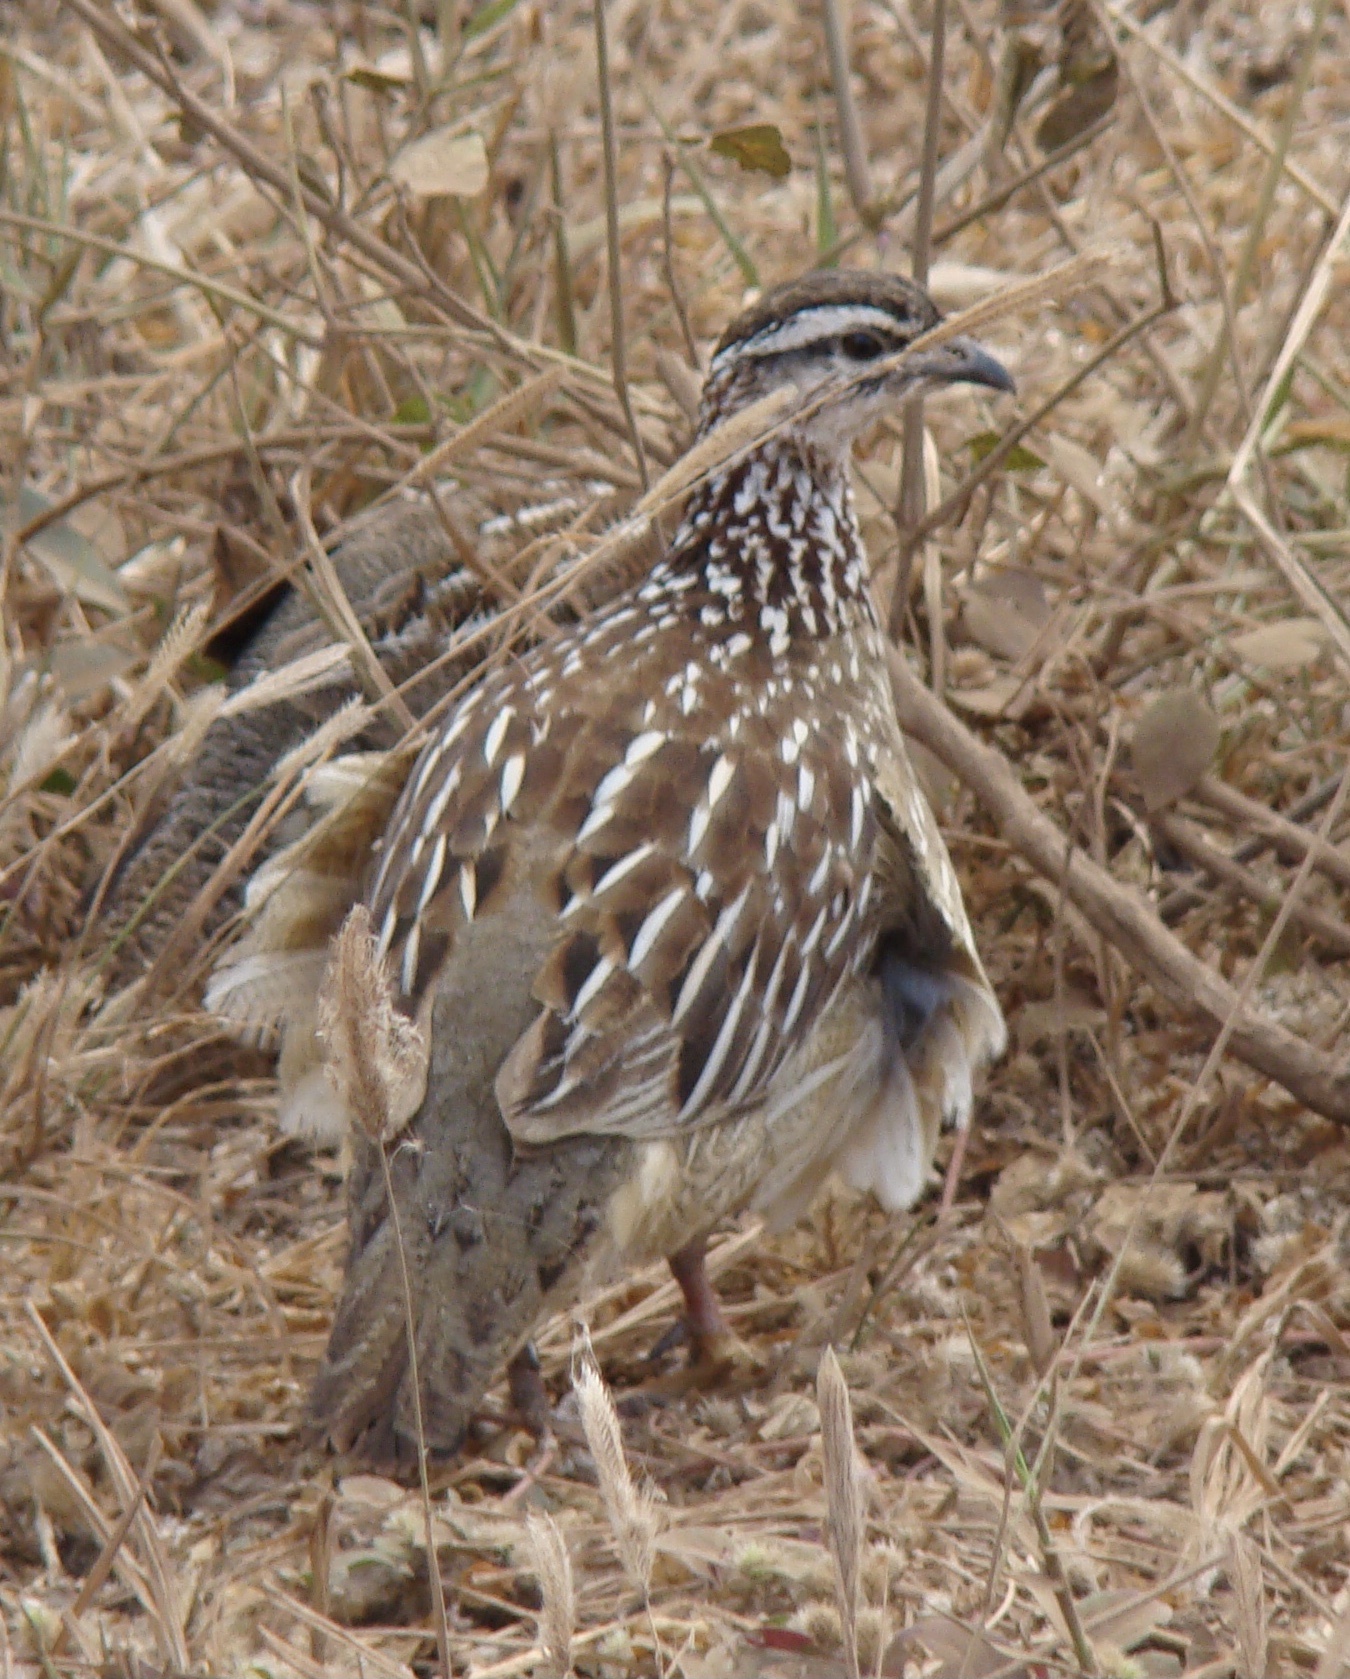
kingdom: Animalia
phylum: Chordata
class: Aves
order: Galliformes
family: Phasianidae
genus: Ortygornis
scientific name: Ortygornis sephaena
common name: Crested francolin
